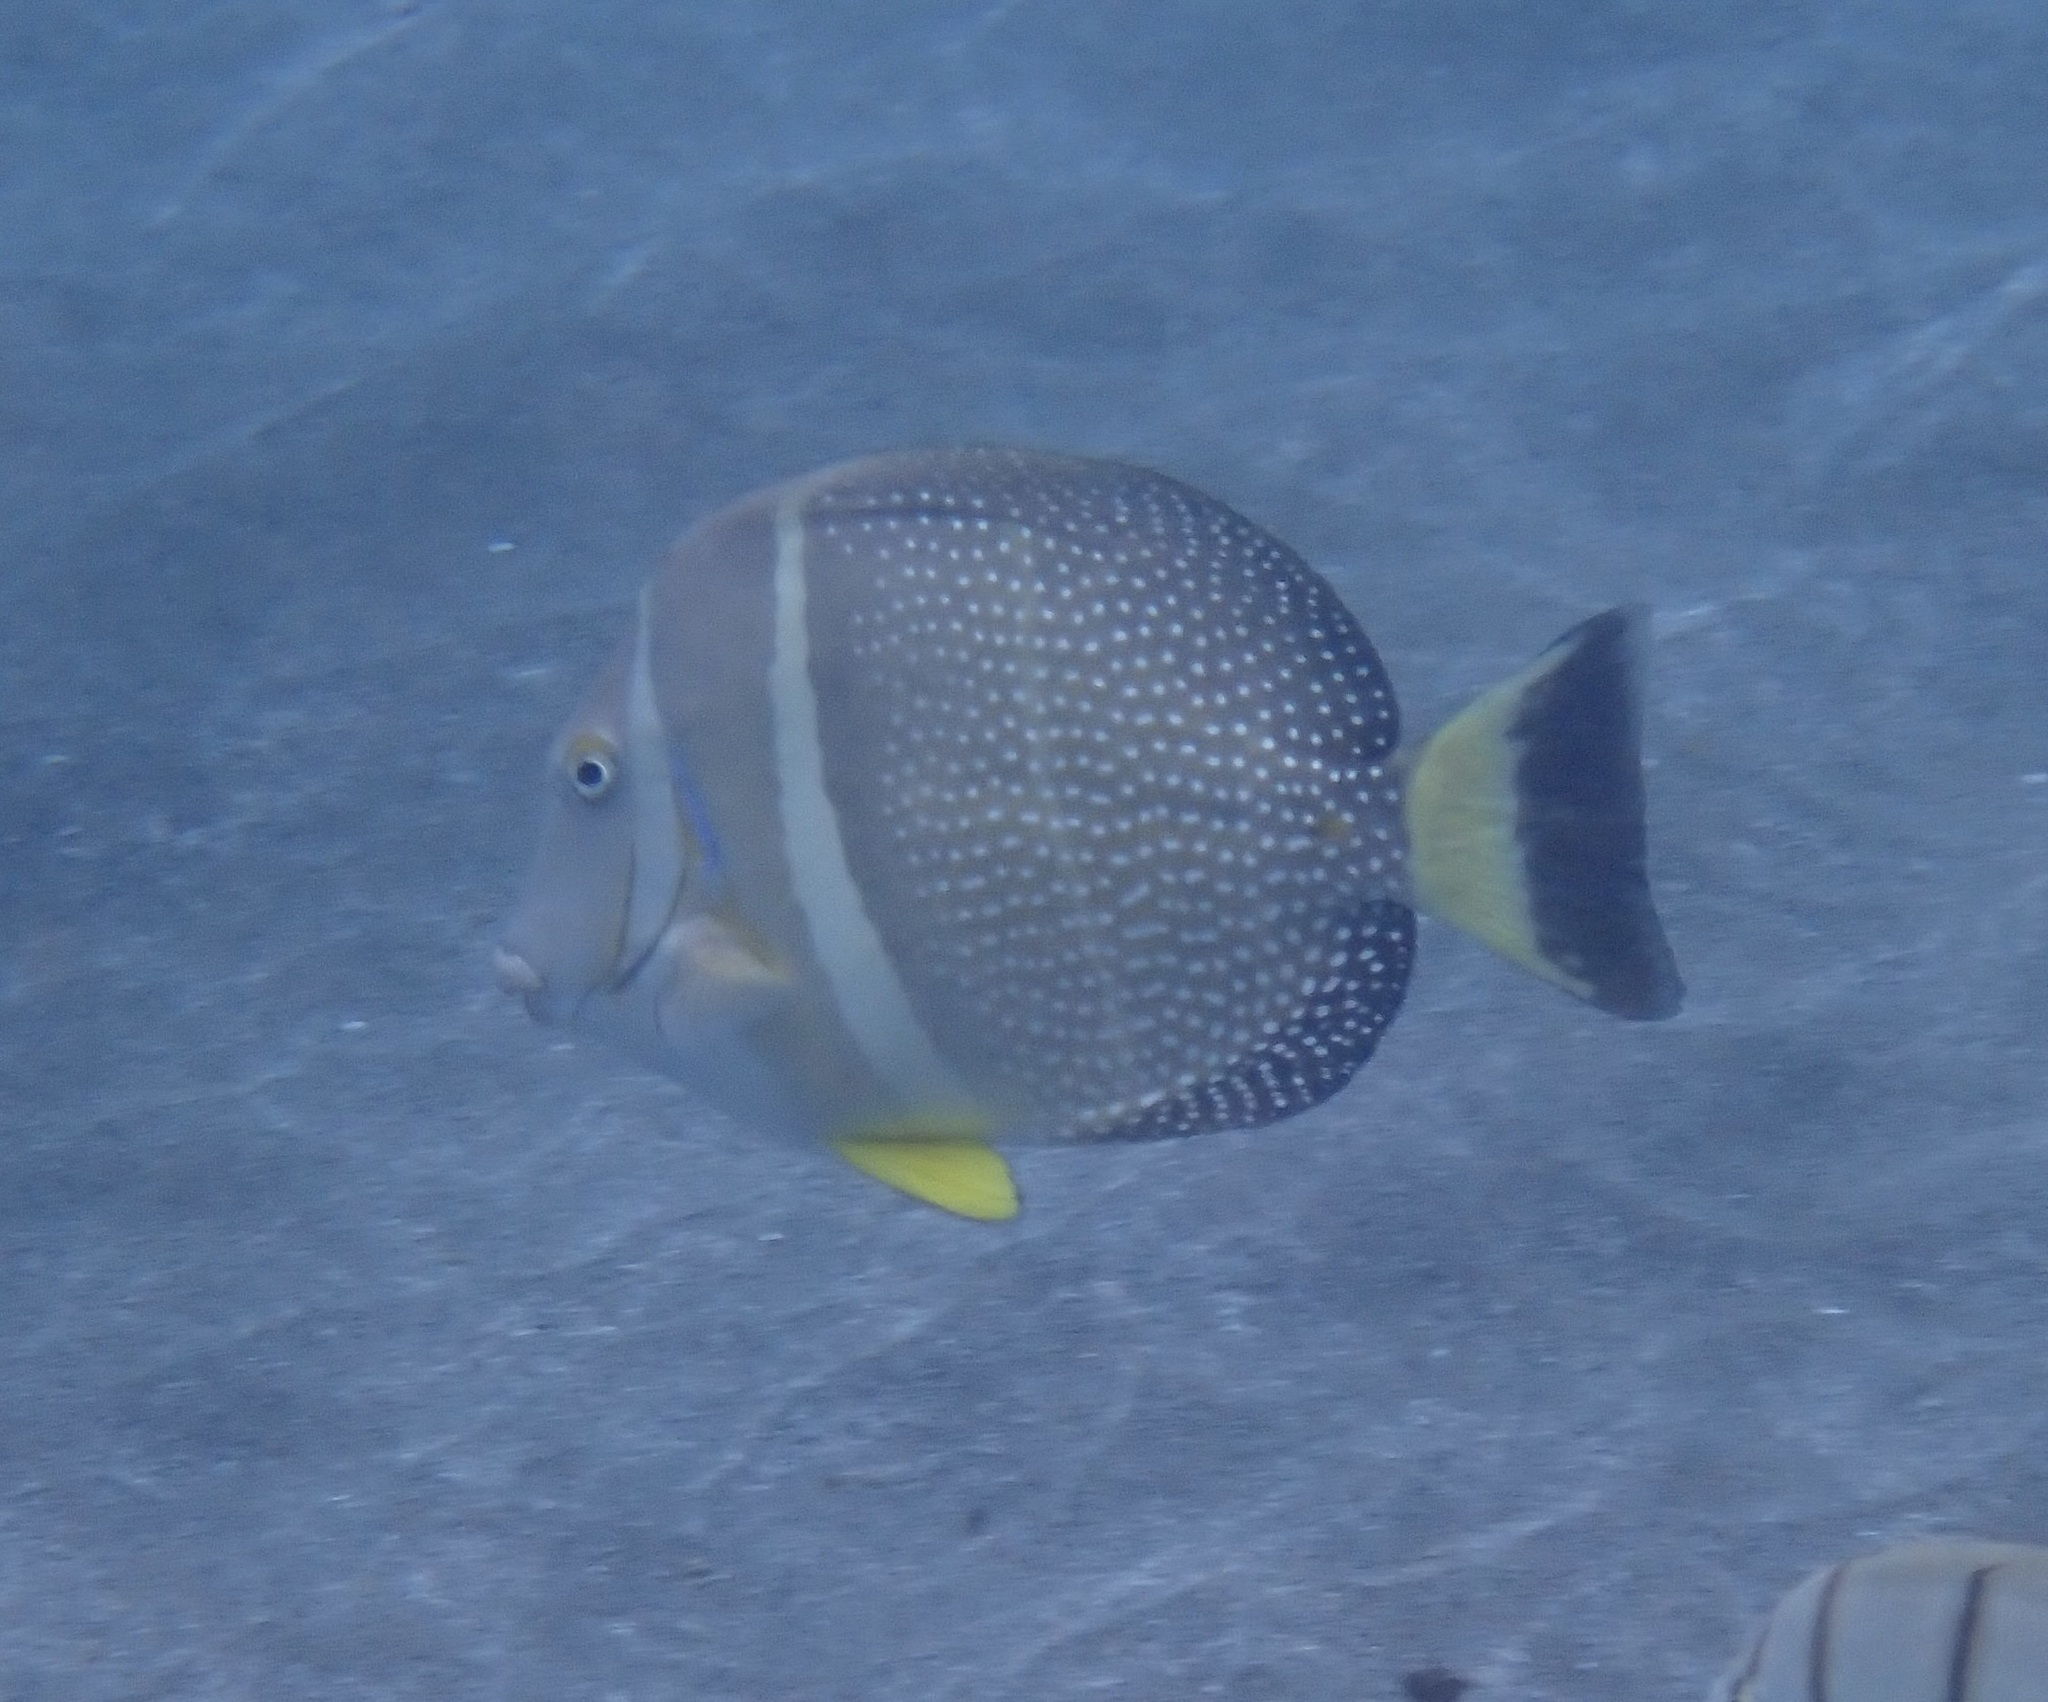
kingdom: Animalia
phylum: Chordata
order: Perciformes
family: Acanthuridae
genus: Acanthurus
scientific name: Acanthurus guttatus
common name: Whitespotted surgeonfish
